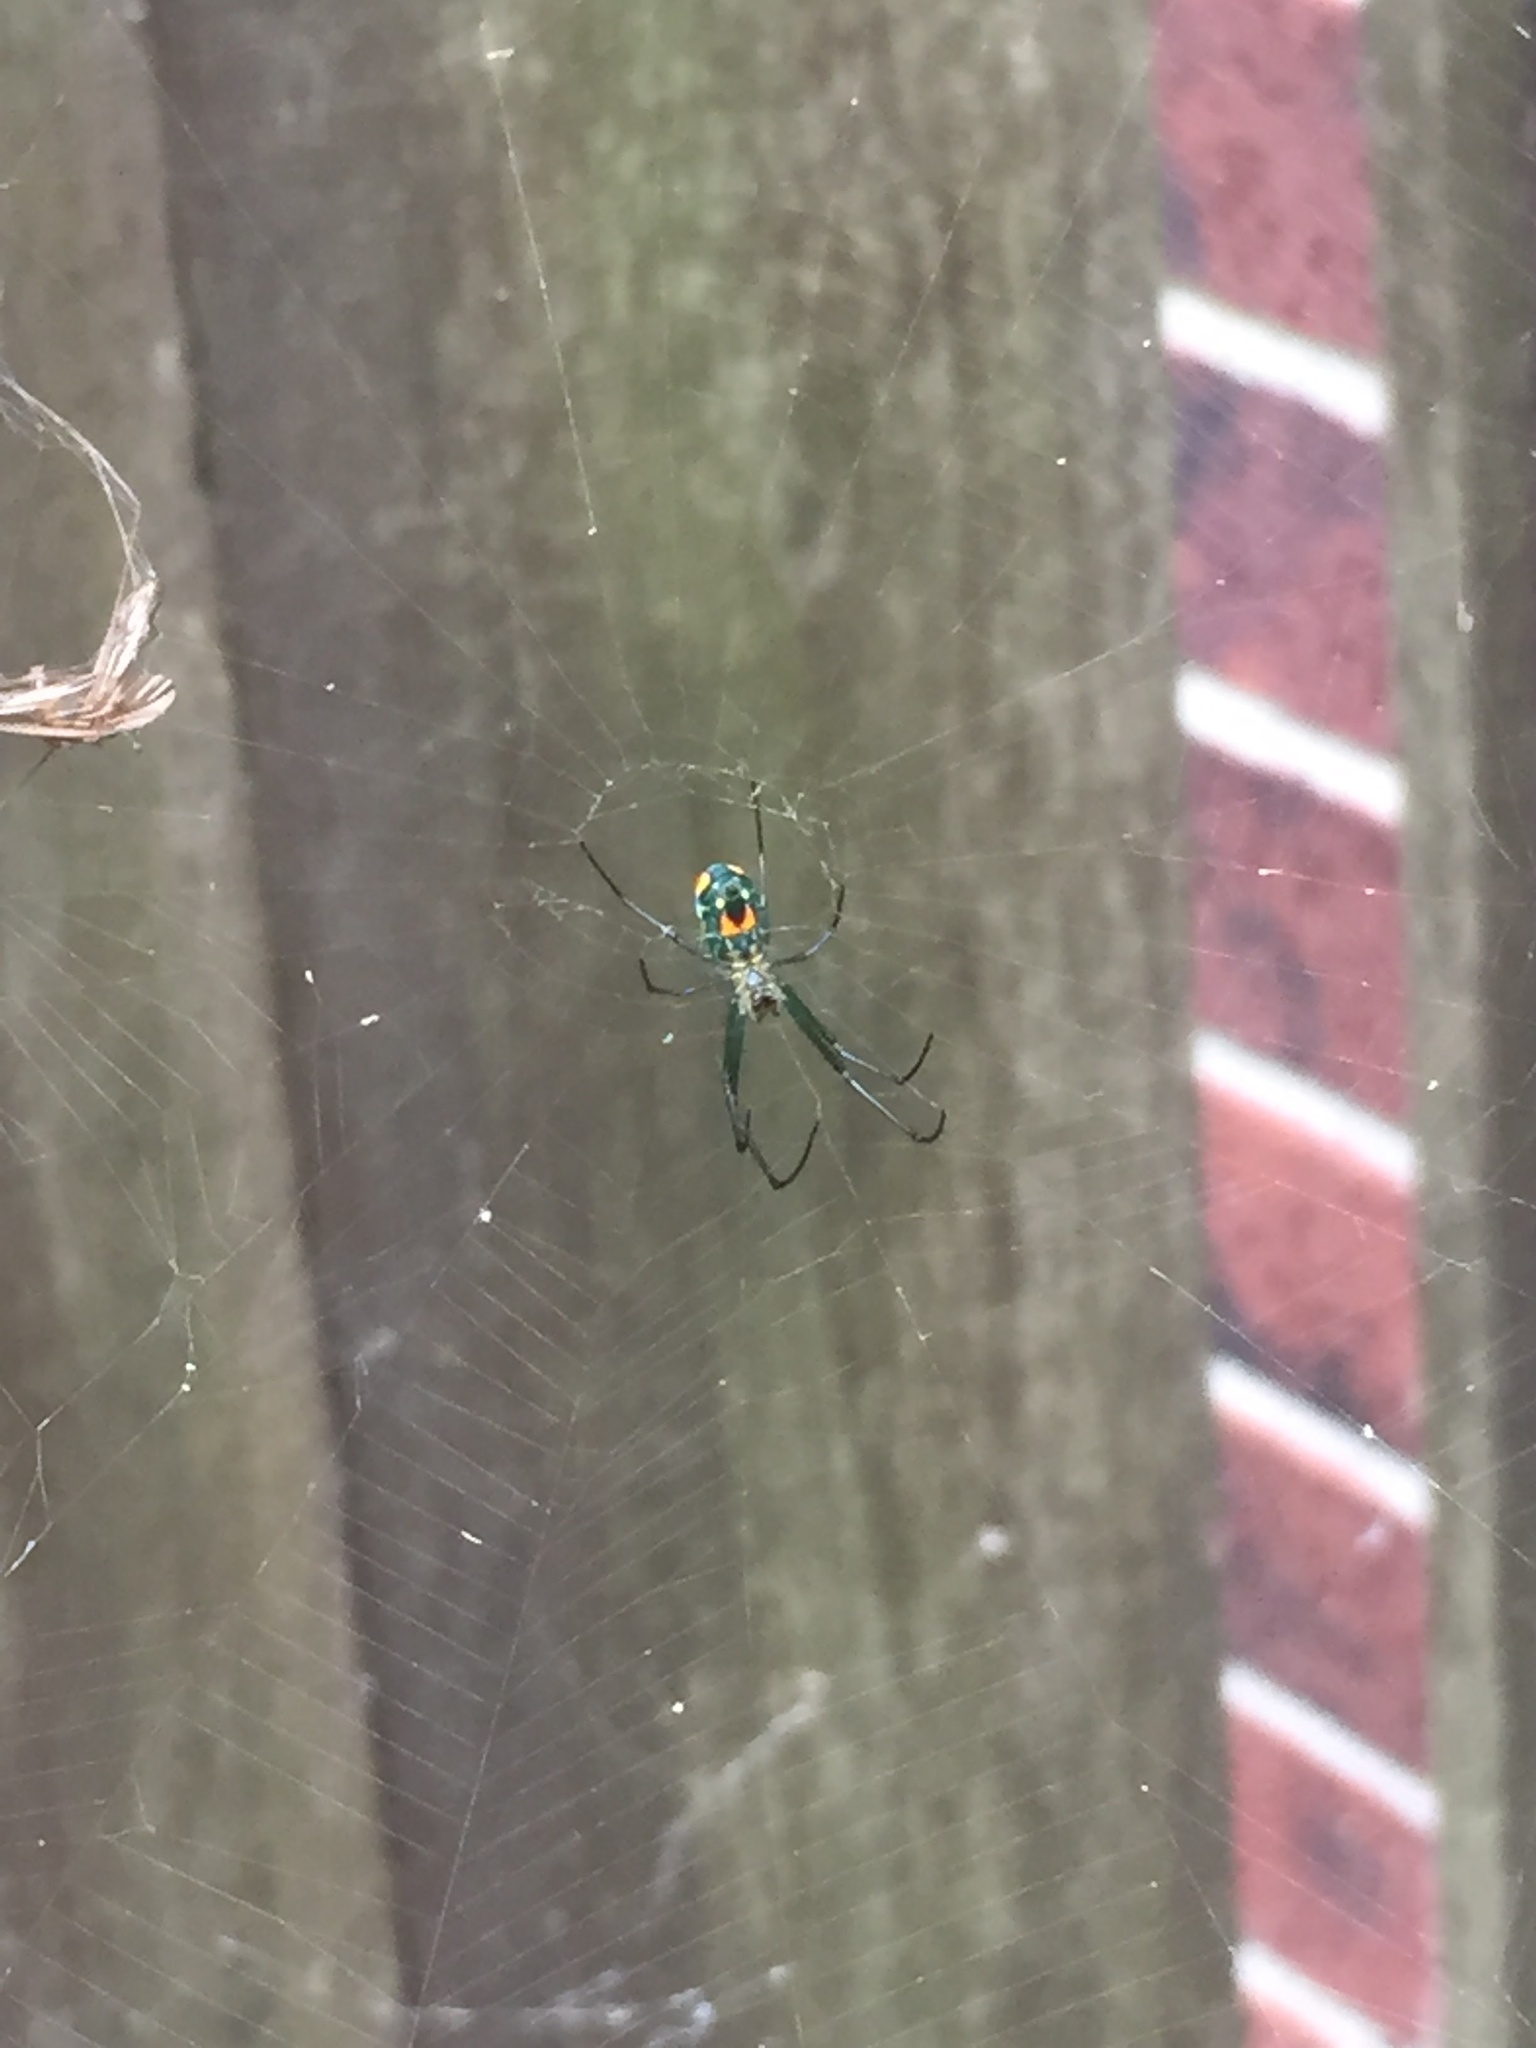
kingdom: Animalia
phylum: Arthropoda
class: Arachnida
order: Araneae
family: Tetragnathidae
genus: Leucauge
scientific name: Leucauge argyrobapta
